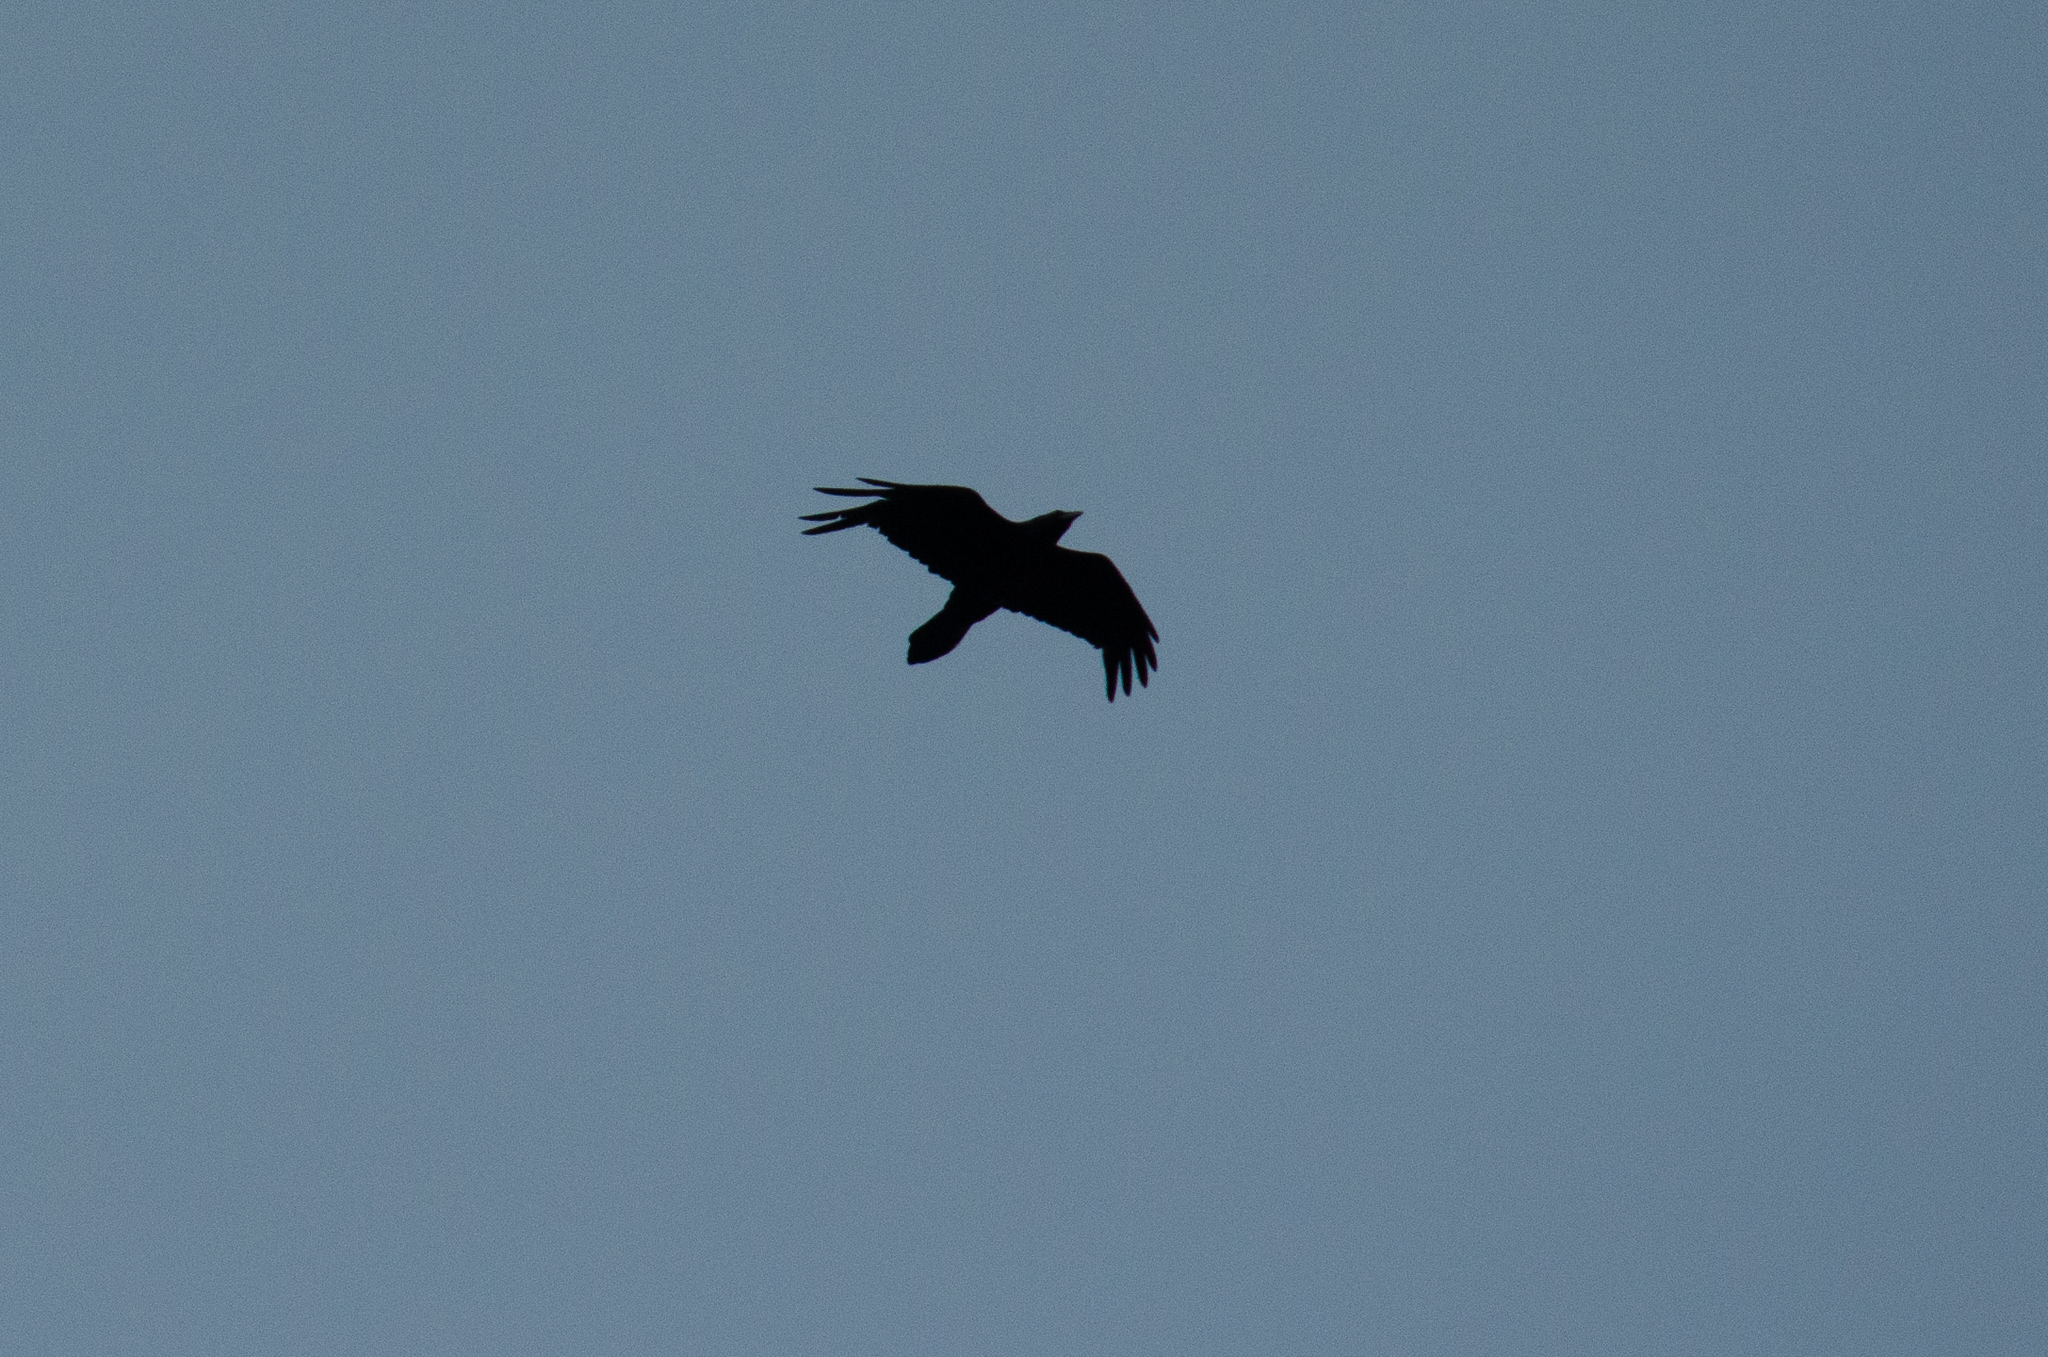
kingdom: Animalia
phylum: Chordata
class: Aves
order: Passeriformes
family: Corvidae
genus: Corvus
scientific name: Corvus corax
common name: Common raven
